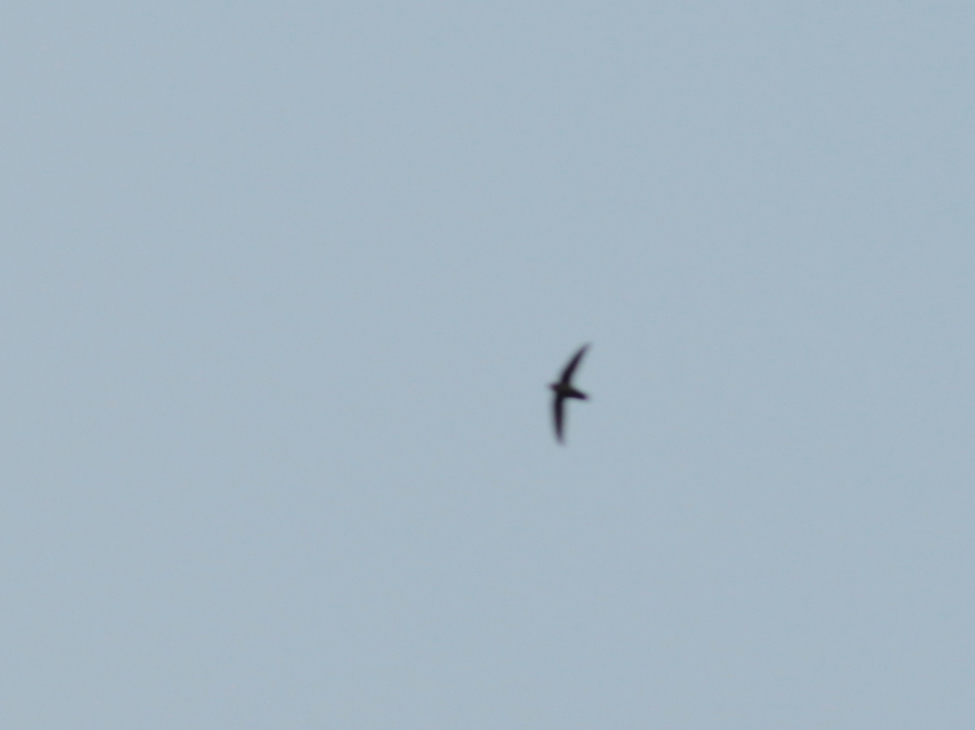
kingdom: Animalia
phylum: Chordata
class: Aves
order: Apodiformes
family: Apodidae
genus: Chaetura
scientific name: Chaetura vauxi
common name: Vaux's swift
